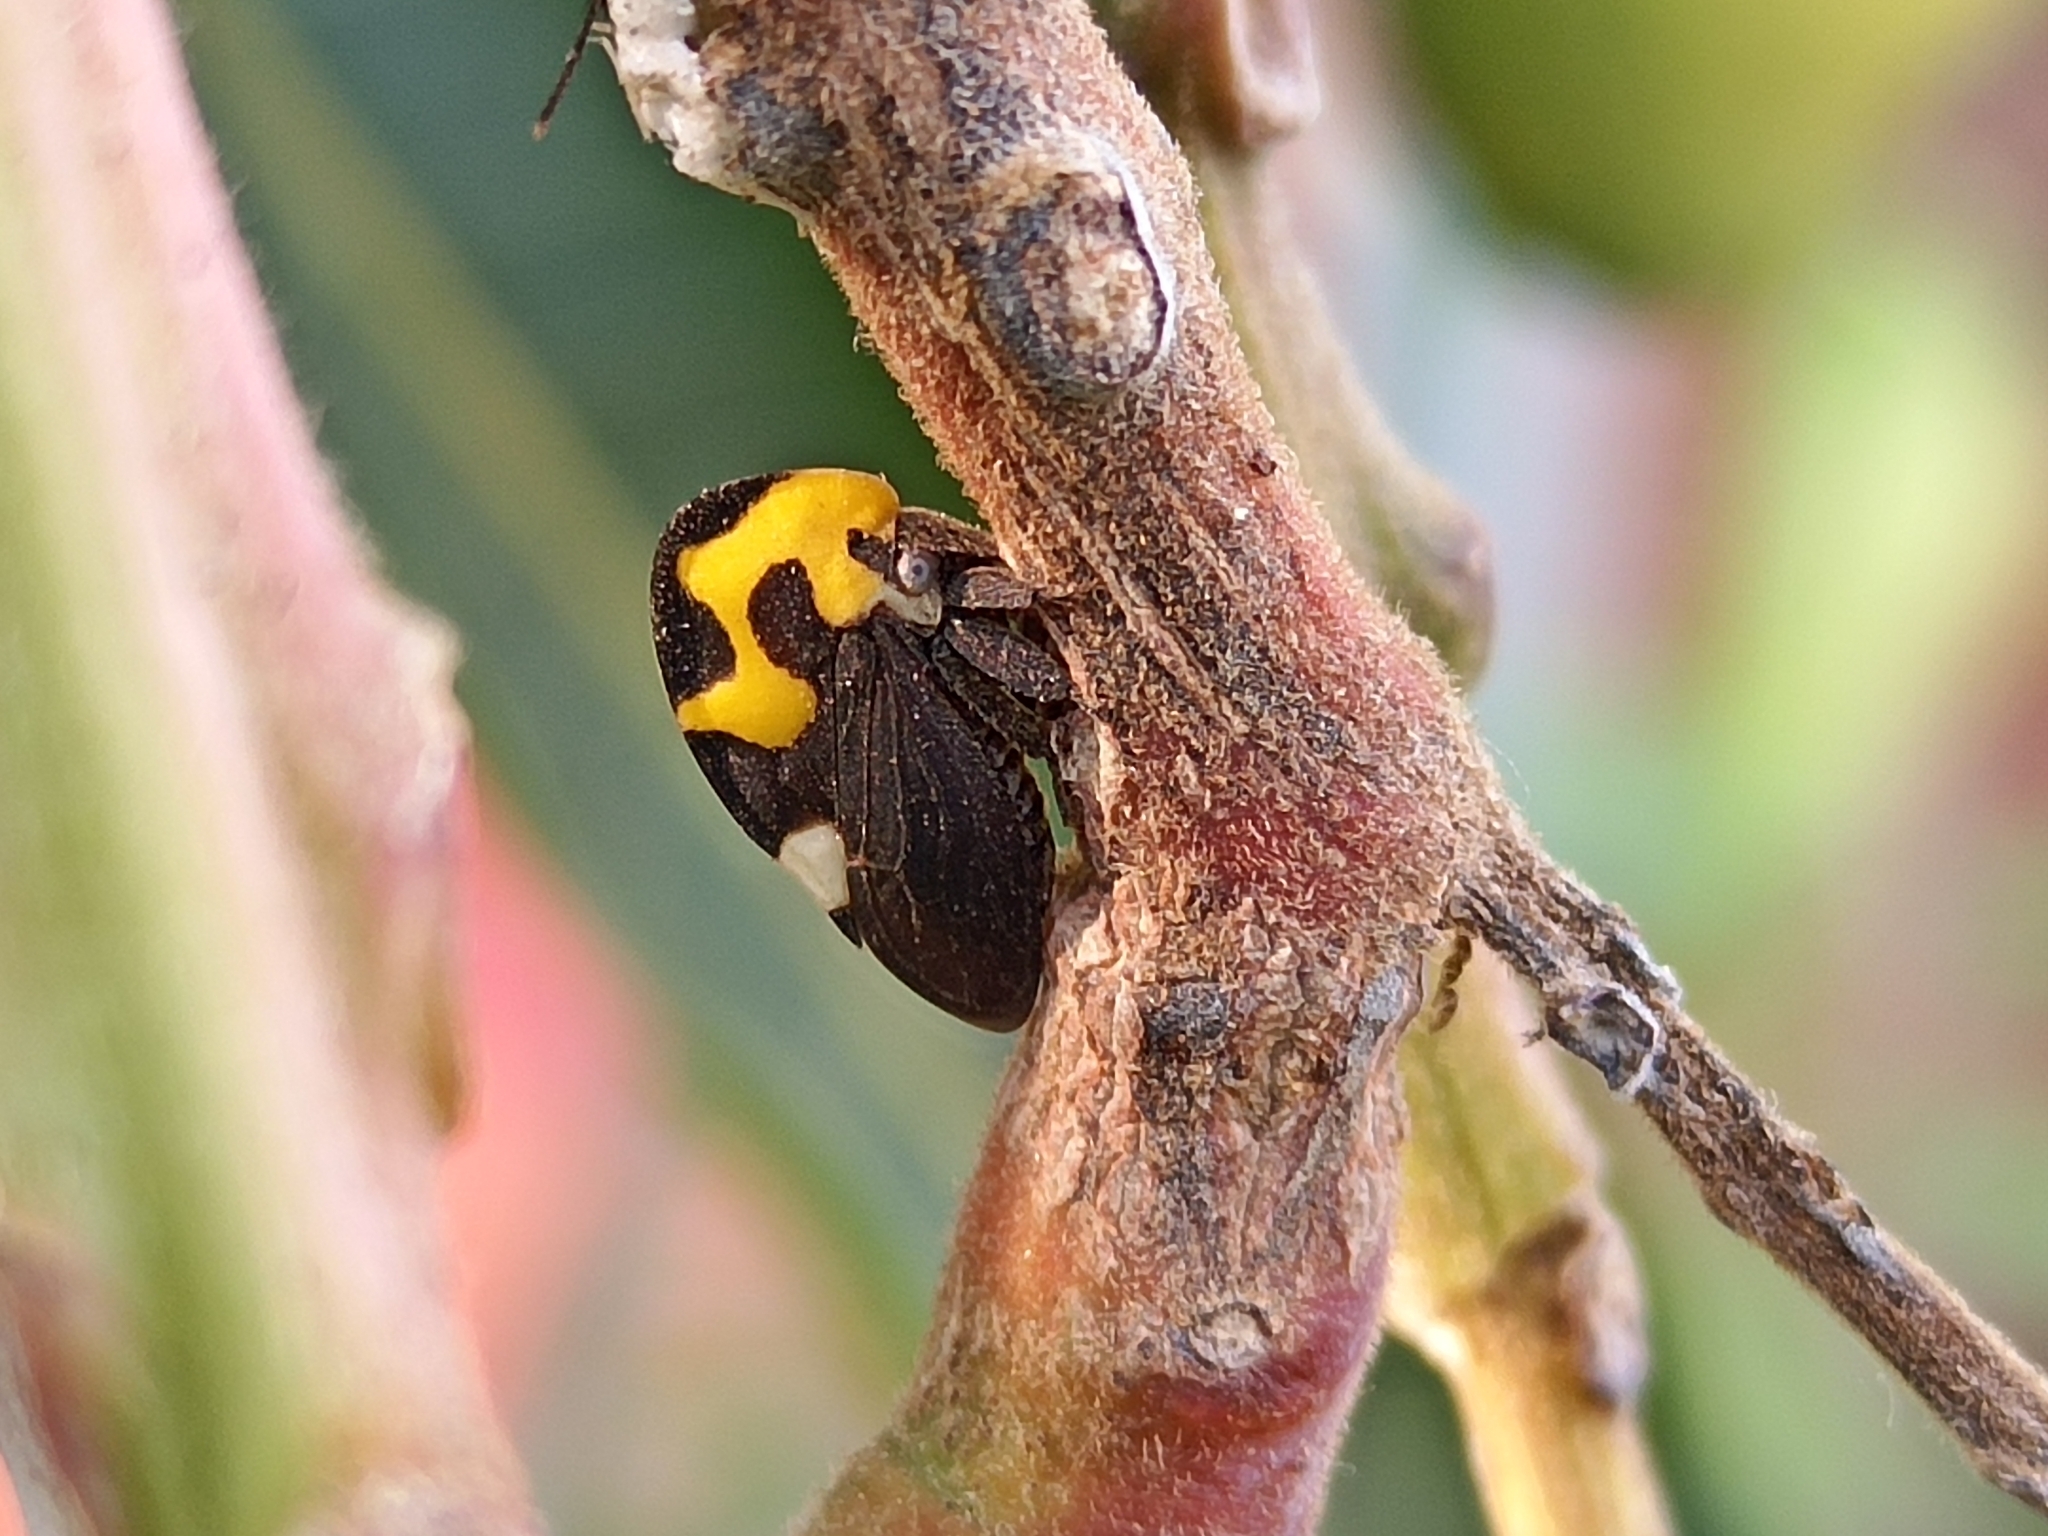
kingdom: Animalia
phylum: Arthropoda
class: Insecta
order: Hemiptera
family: Membracidae
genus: Membracis
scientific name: Membracis mexicana
